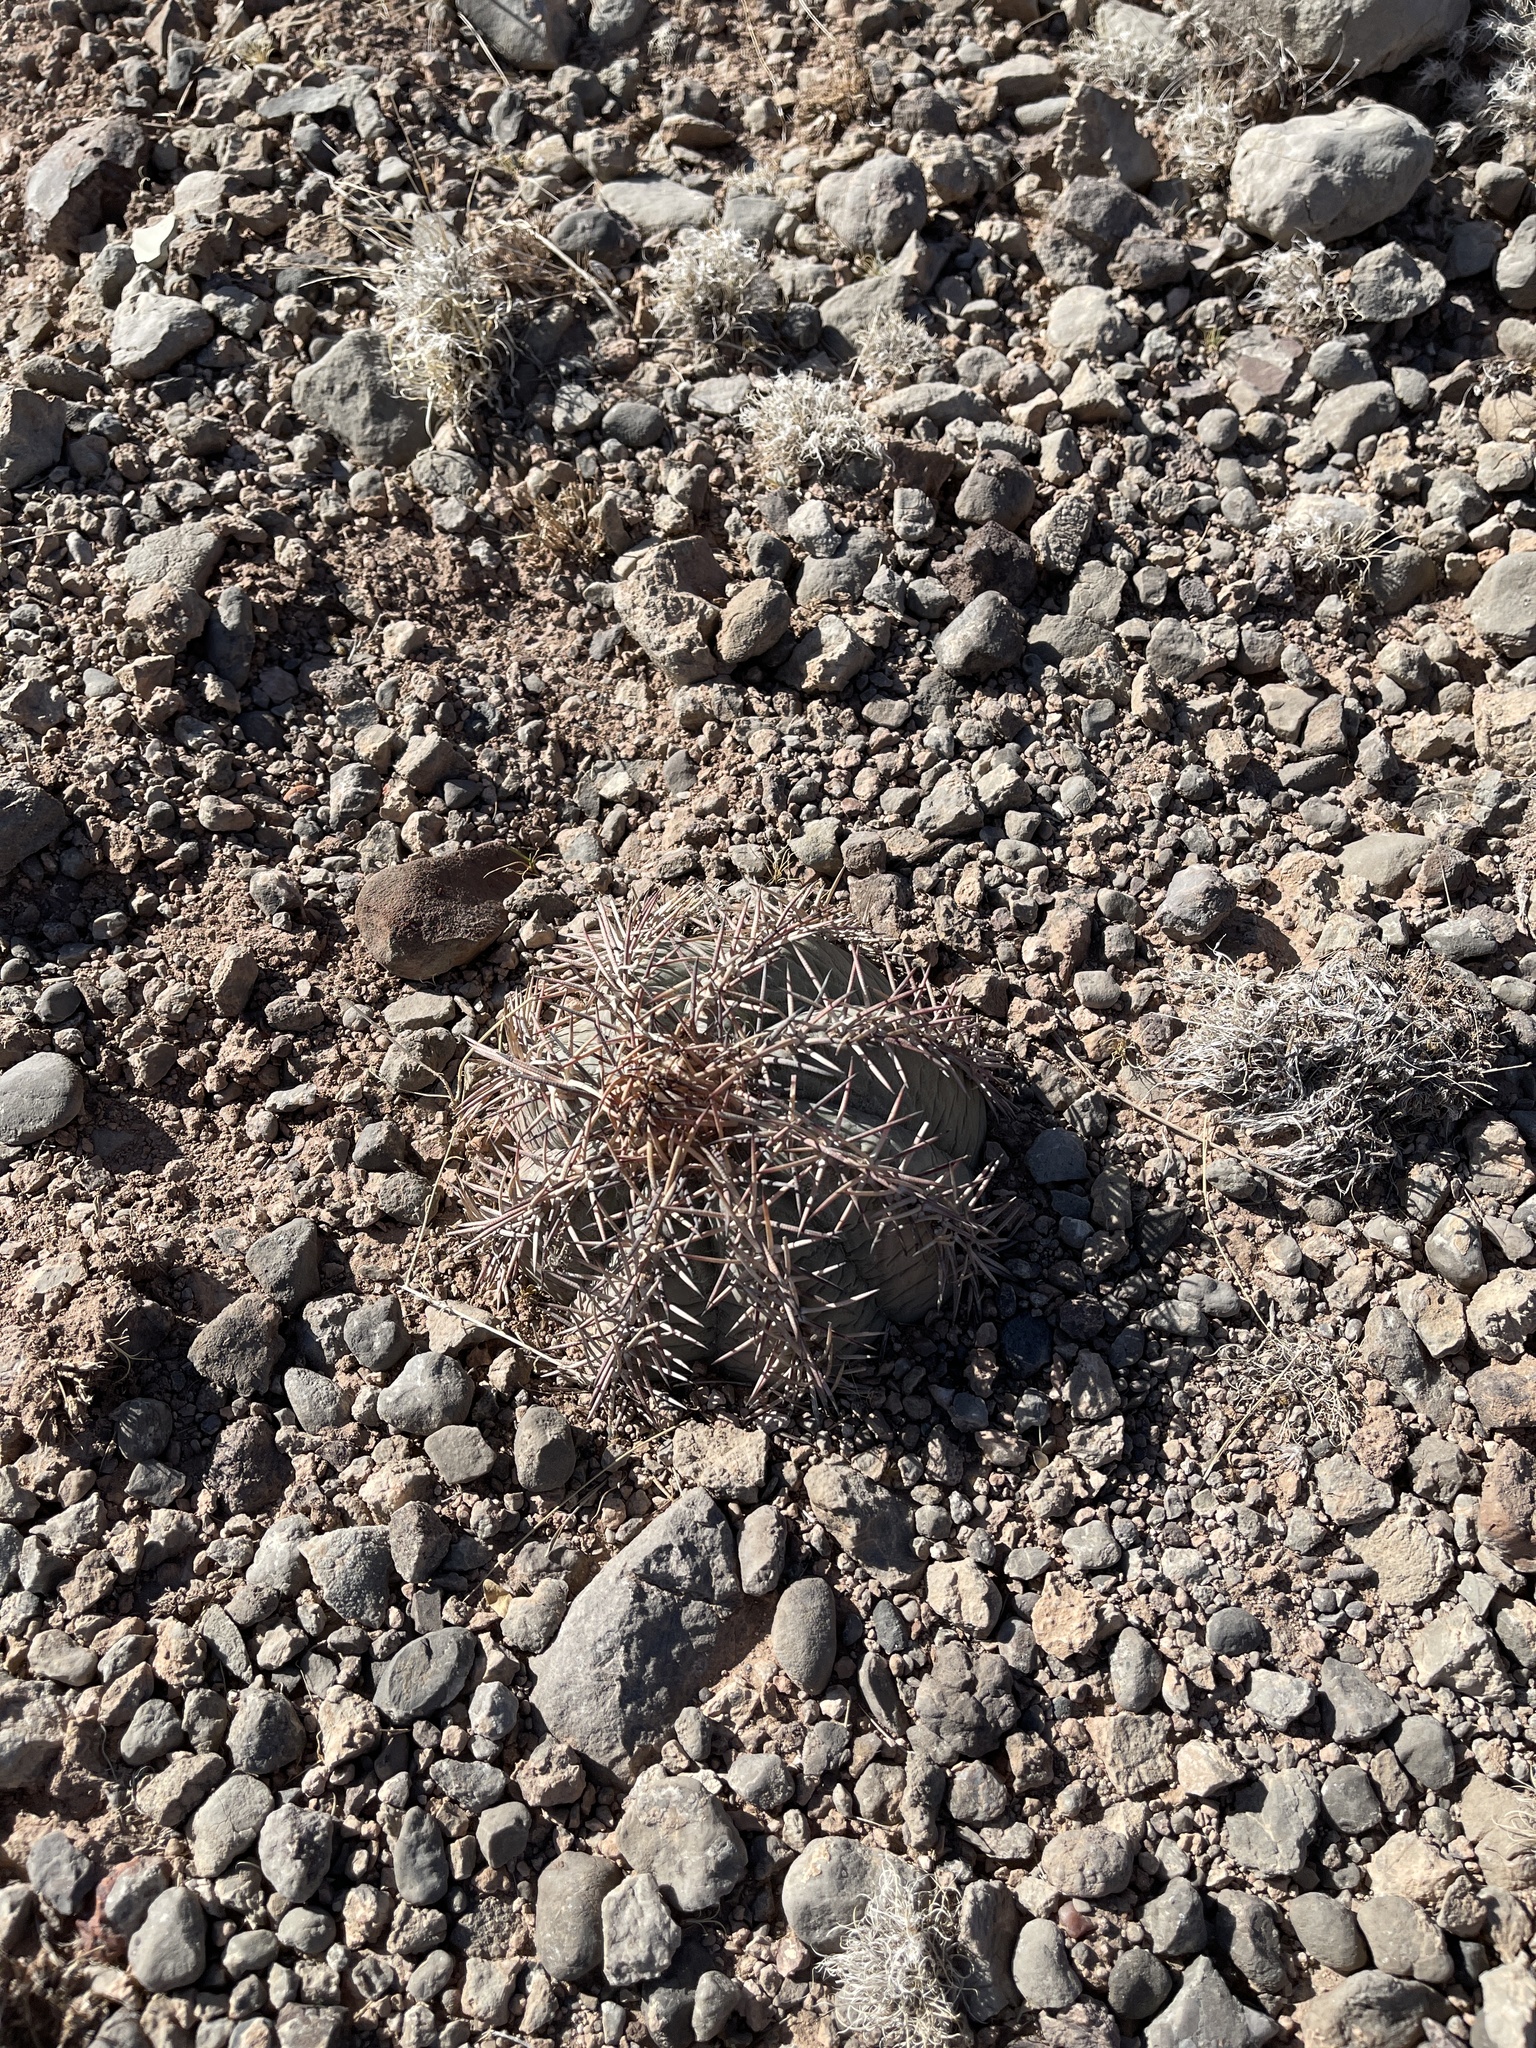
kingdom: Plantae
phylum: Tracheophyta
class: Magnoliopsida
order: Caryophyllales
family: Cactaceae
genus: Echinocactus
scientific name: Echinocactus horizonthalonius
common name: Devilshead
